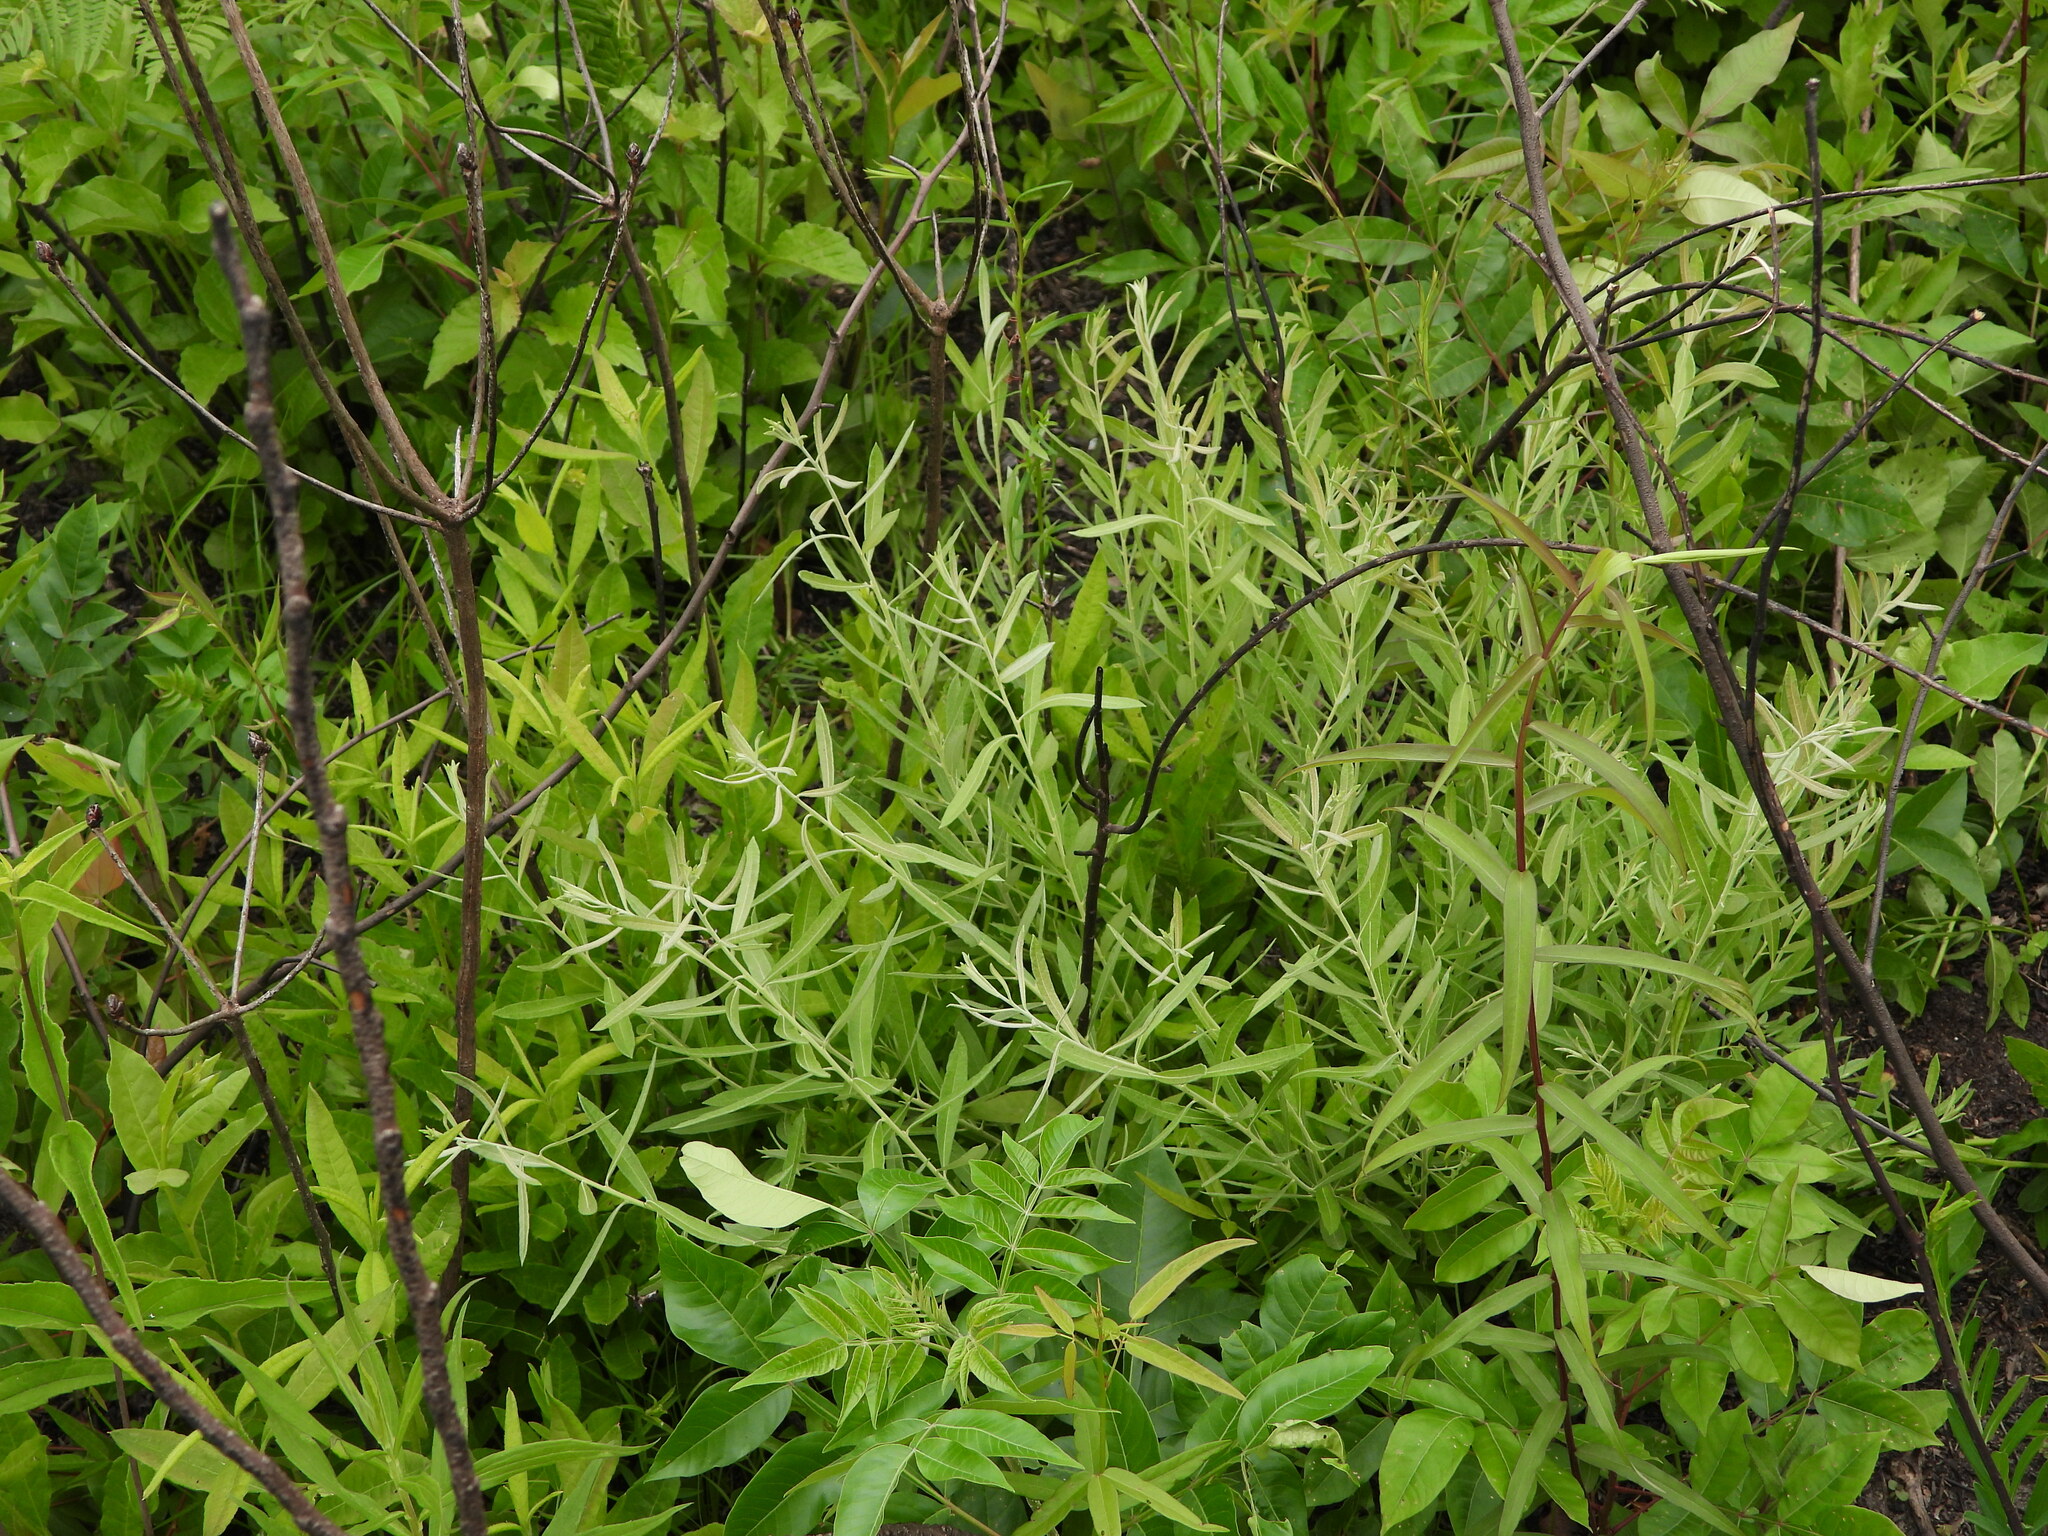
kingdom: Plantae
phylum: Tracheophyta
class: Magnoliopsida
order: Malpighiales
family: Salicaceae
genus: Salix
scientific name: Salix humilis
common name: Prairie willow
